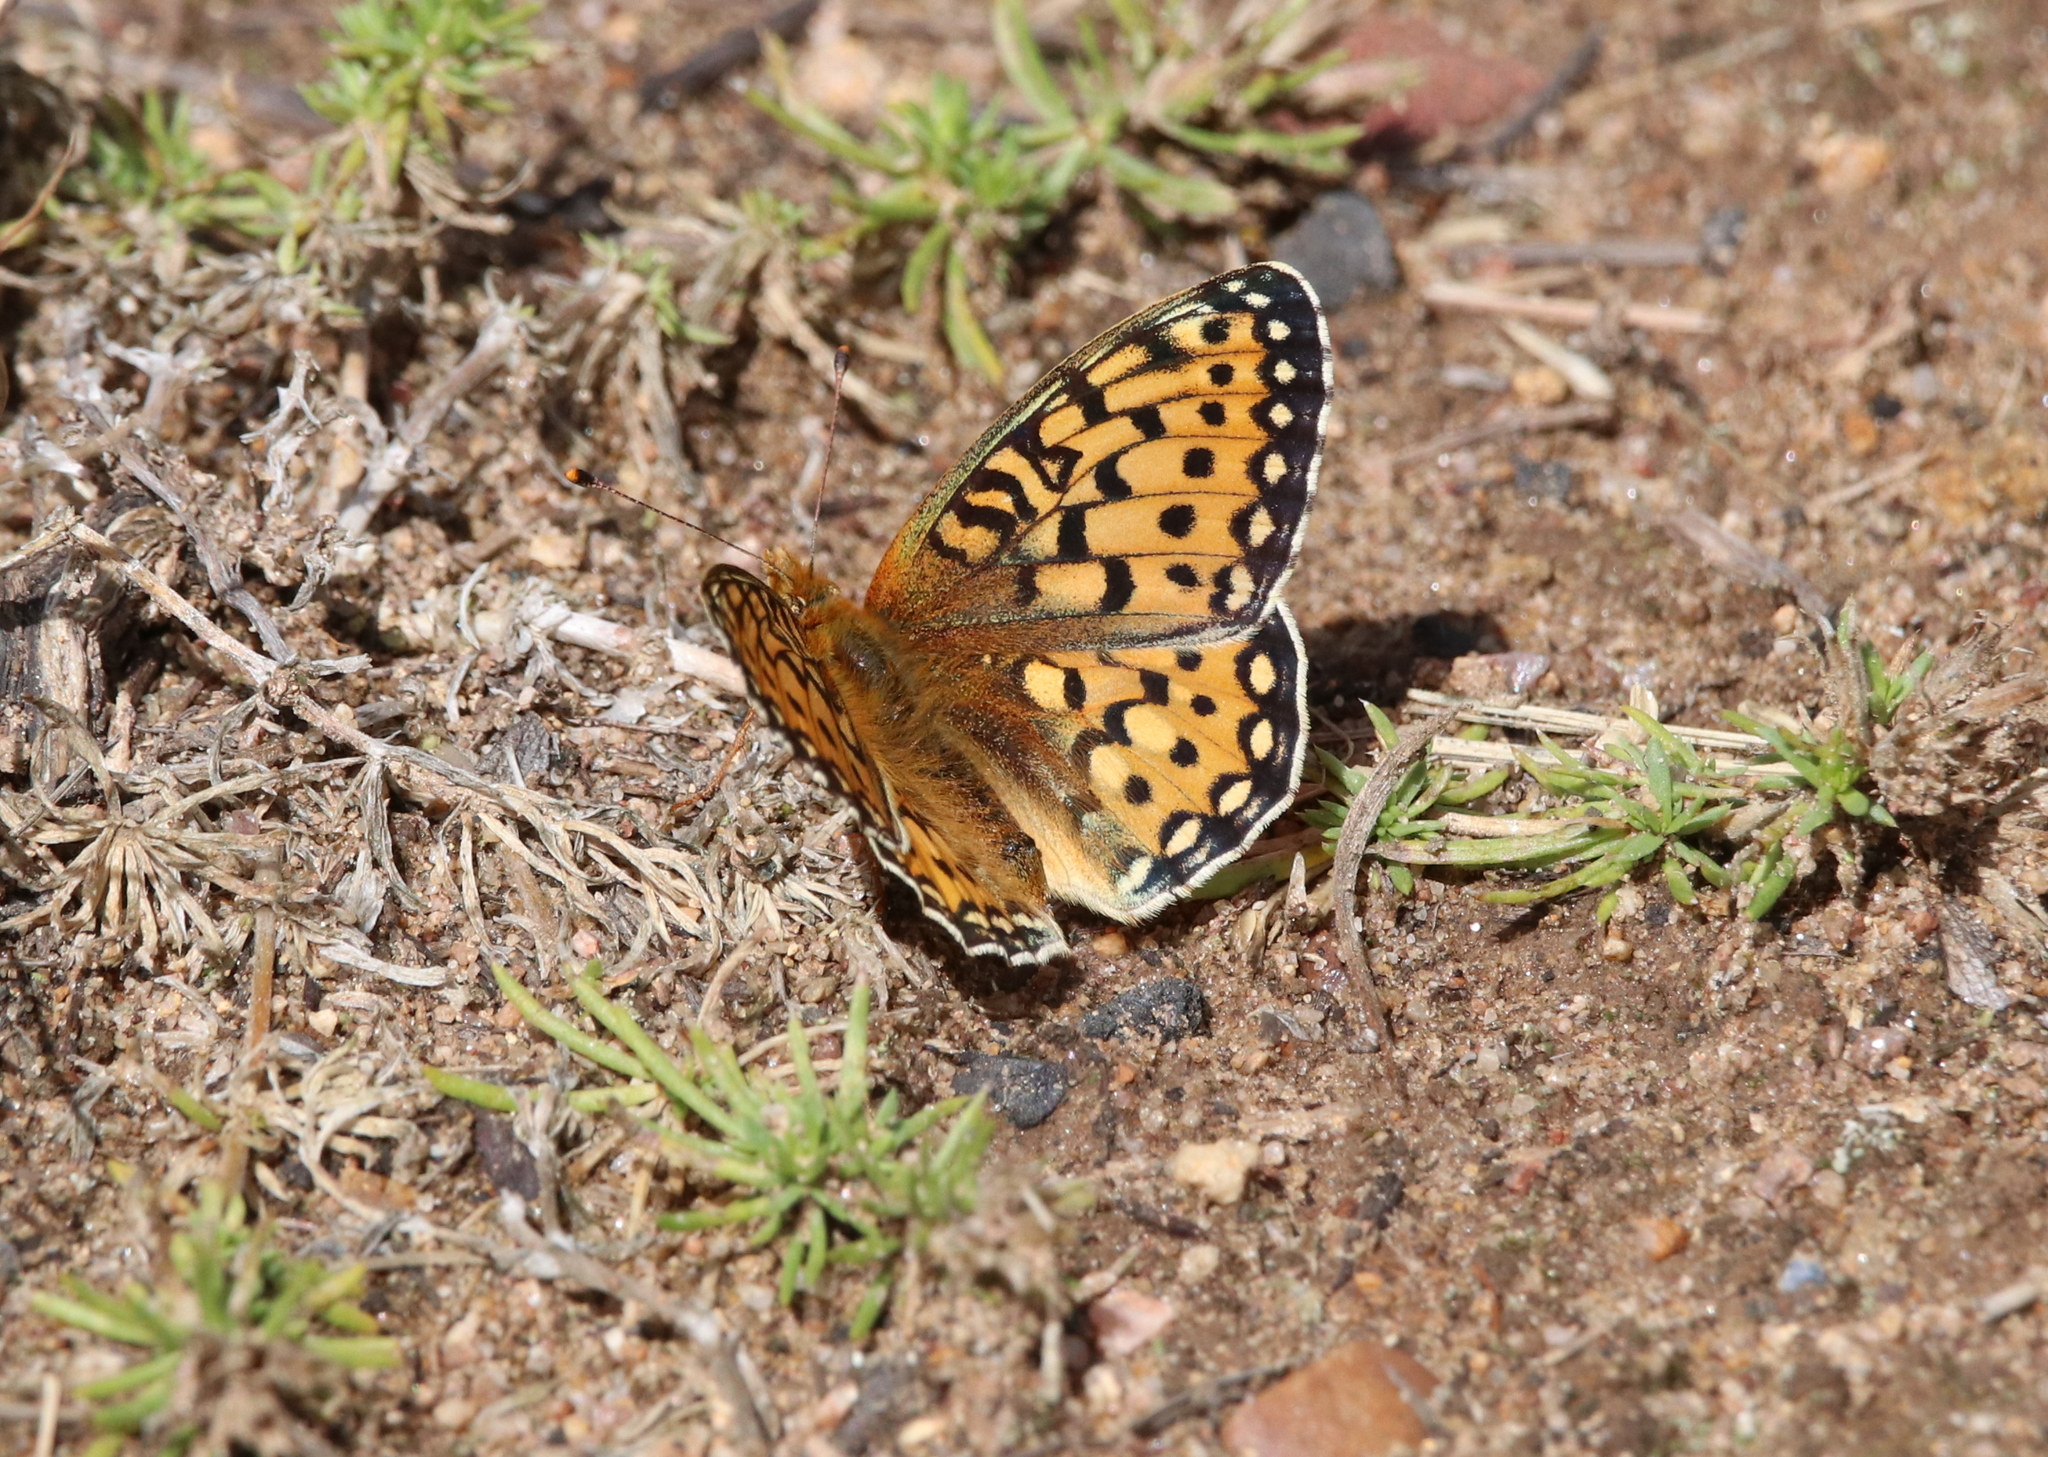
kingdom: Animalia
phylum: Arthropoda
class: Insecta
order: Lepidoptera
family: Nymphalidae
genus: Speyeria
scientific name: Speyeria mormonia
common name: Mormon fritillary
